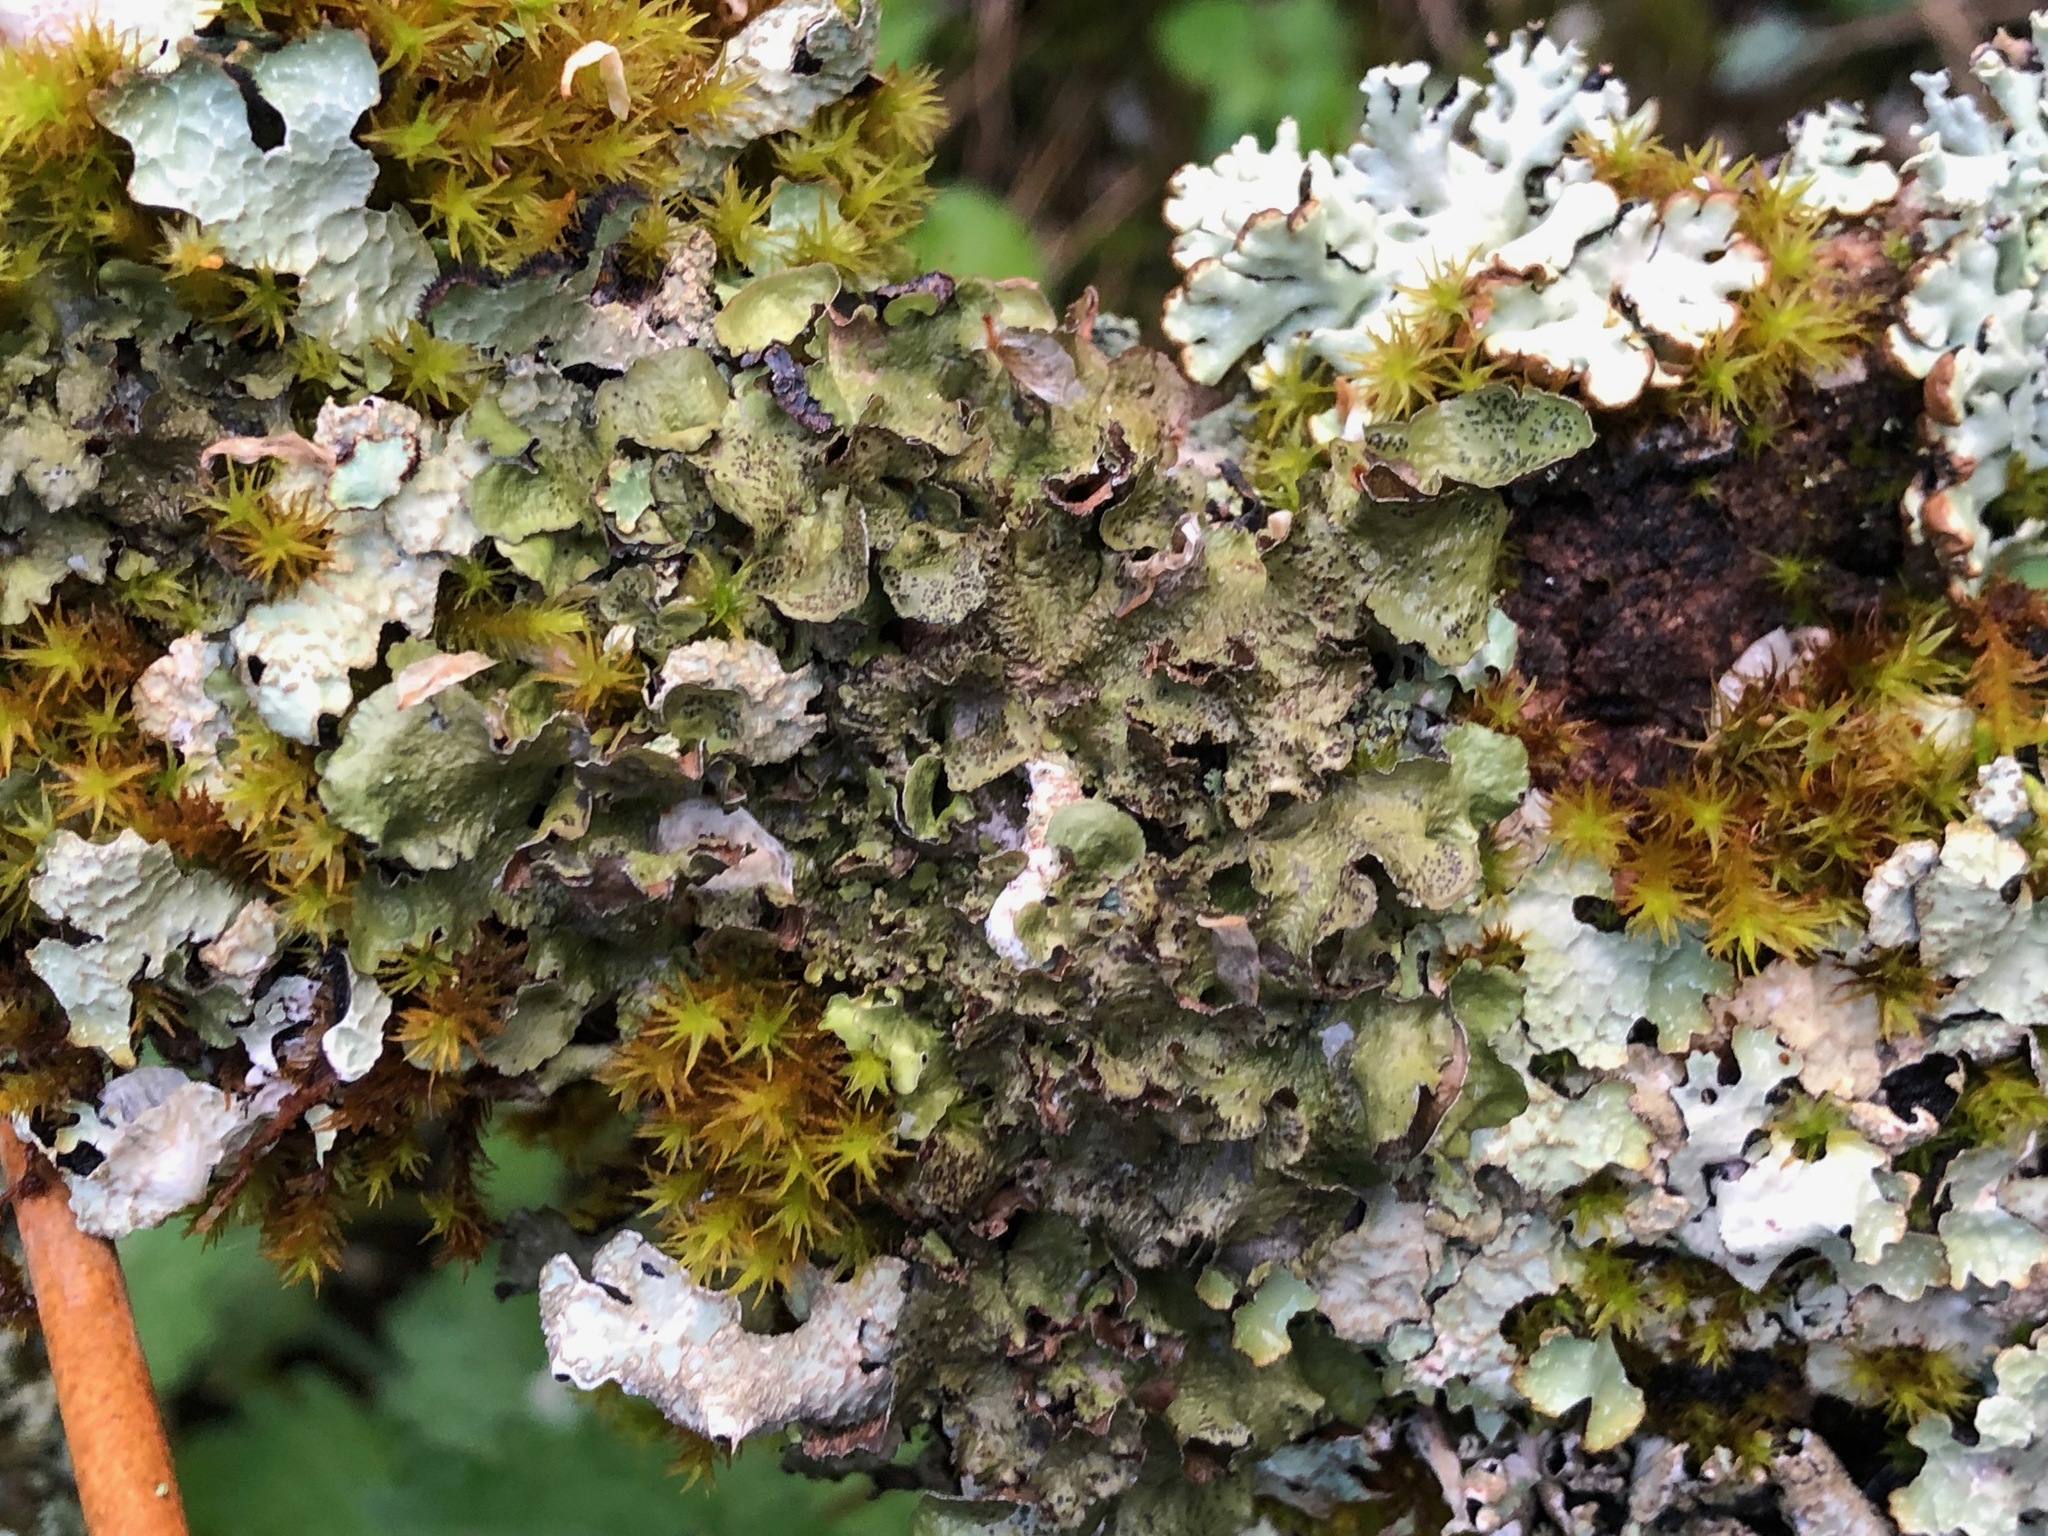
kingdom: Fungi
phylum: Ascomycota
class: Lecanoromycetes
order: Lecanorales
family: Parmeliaceae
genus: Pleurosticta
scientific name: Pleurosticta acetabulum
